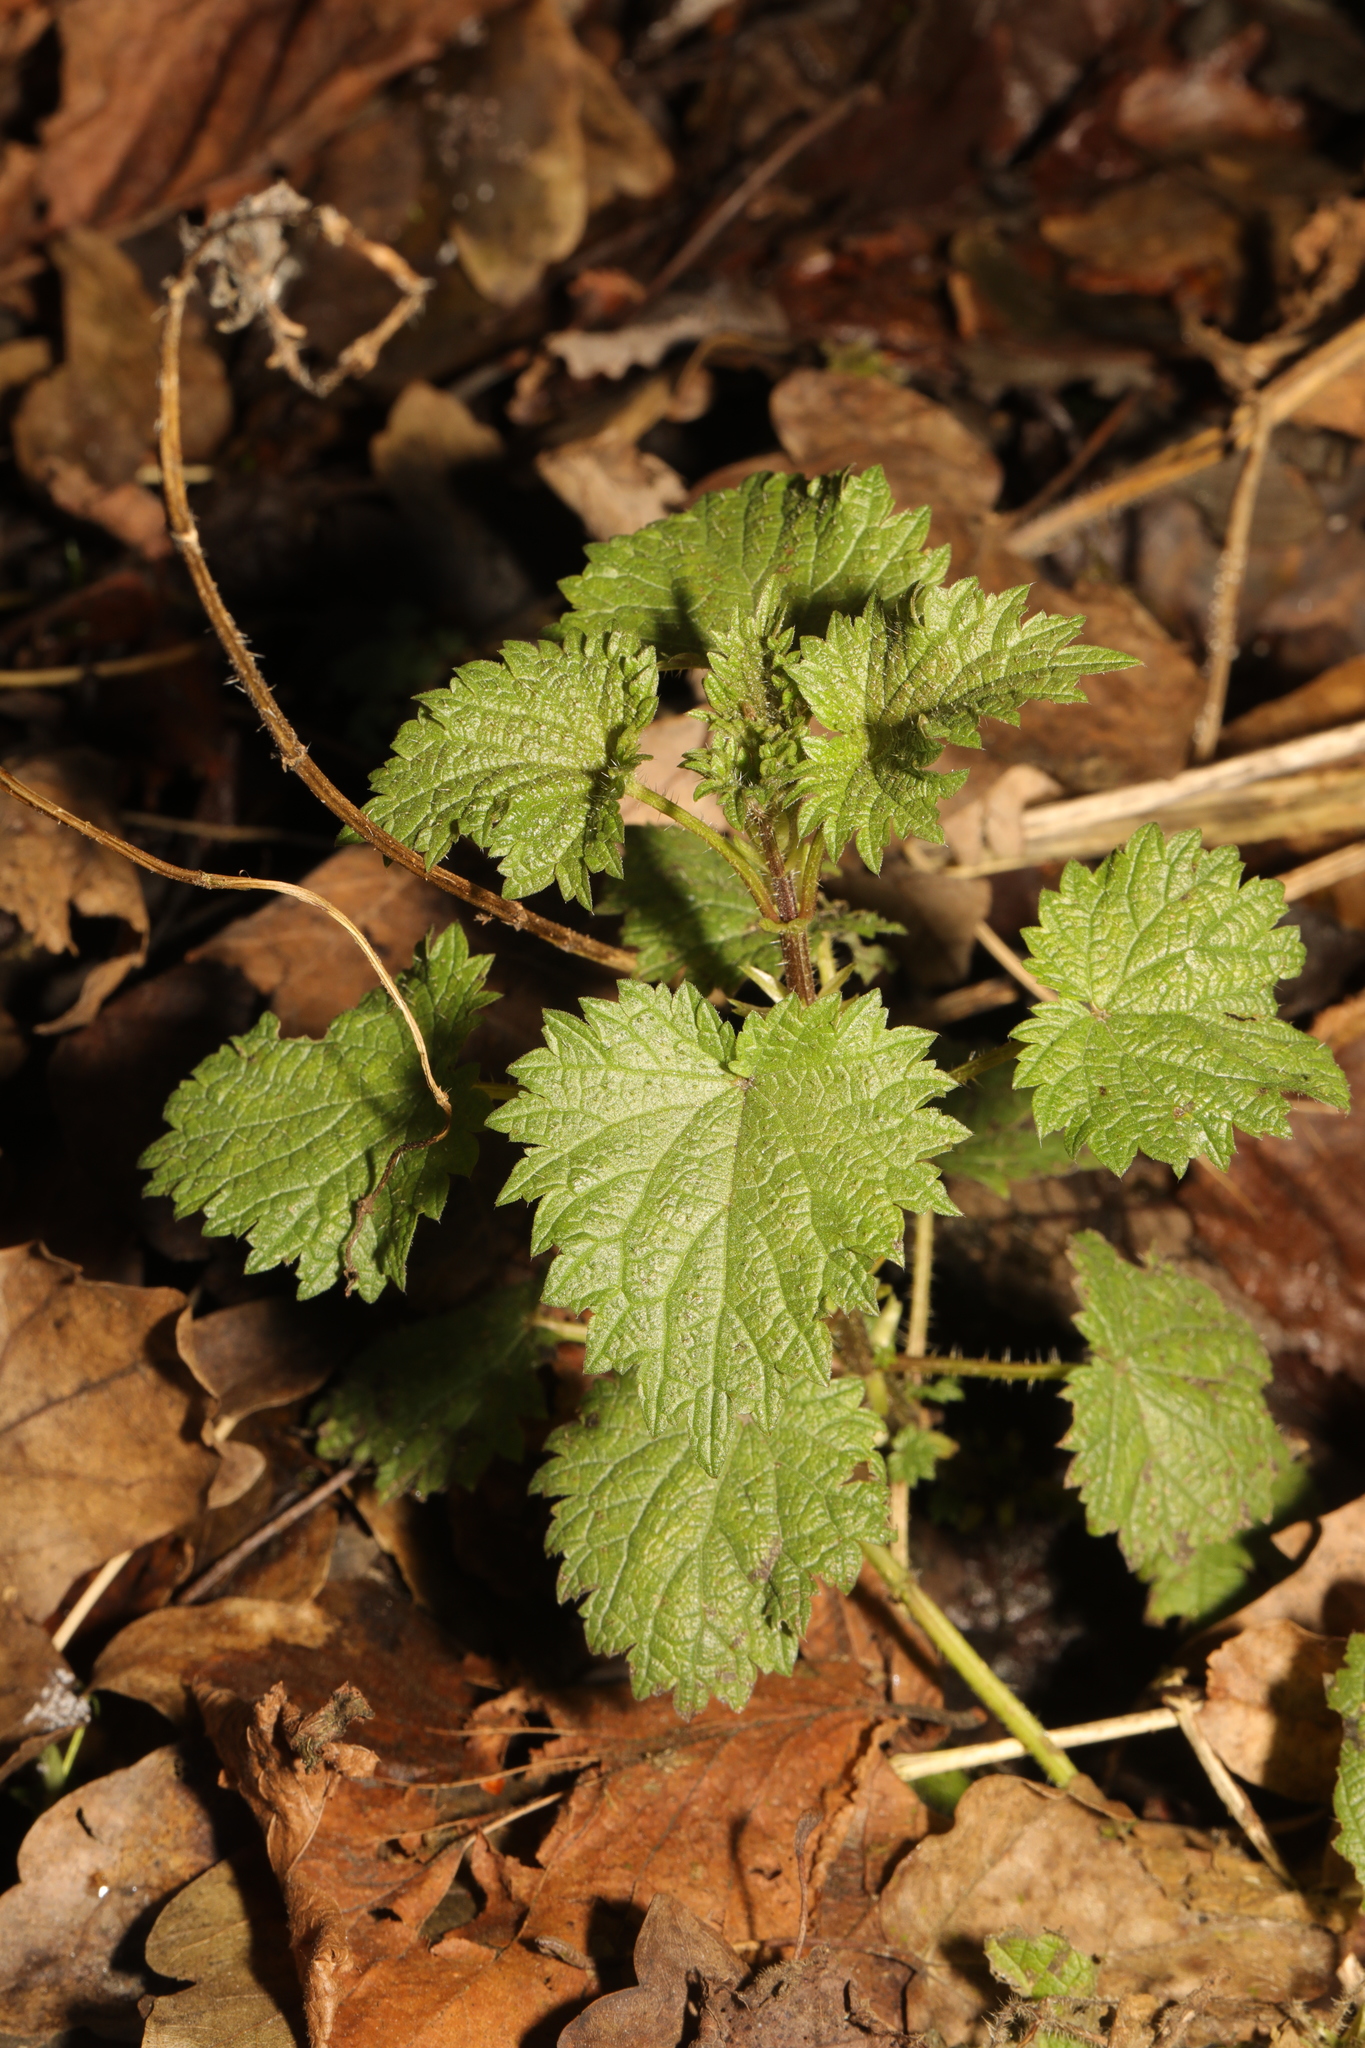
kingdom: Plantae
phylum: Tracheophyta
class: Magnoliopsida
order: Rosales
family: Urticaceae
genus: Urtica
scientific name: Urtica dioica
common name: Common nettle
